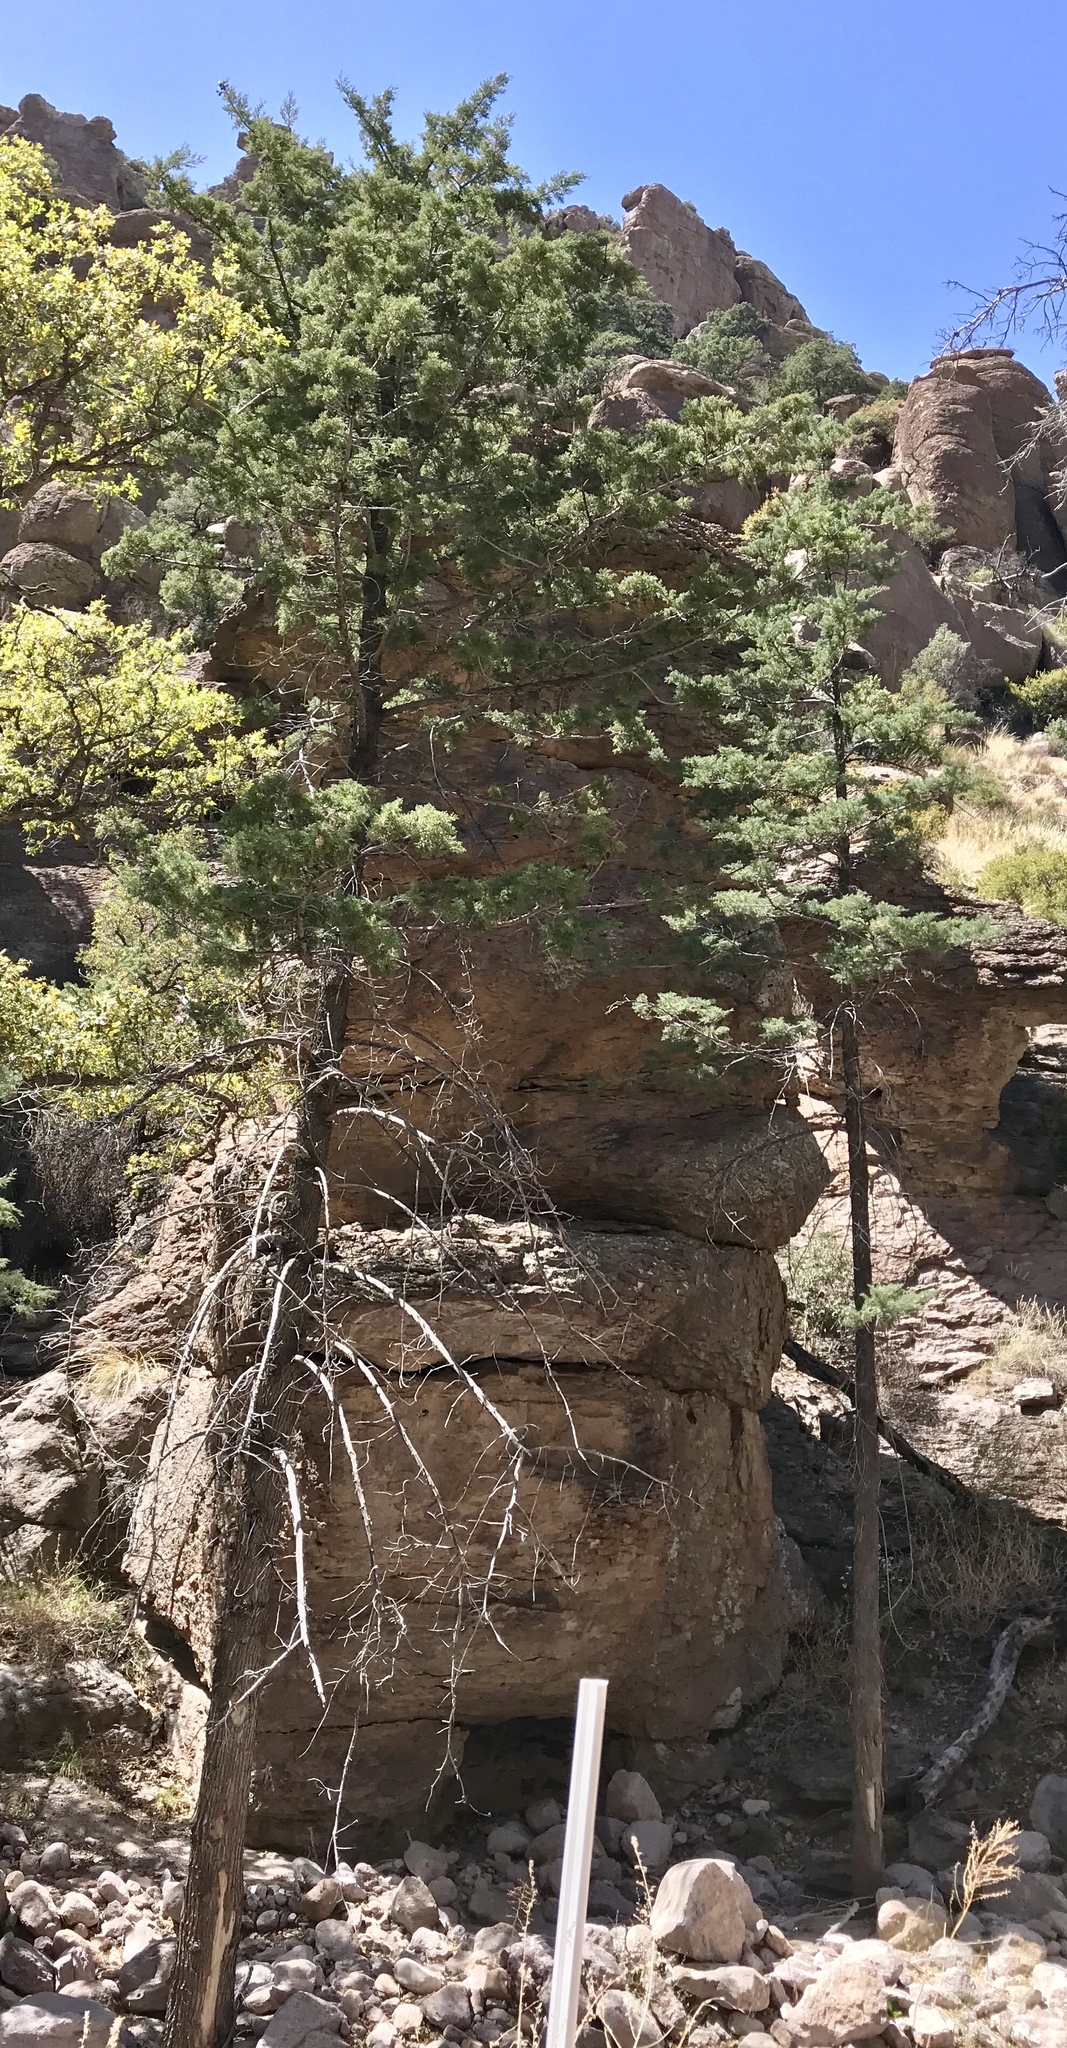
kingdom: Plantae
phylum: Tracheophyta
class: Pinopsida
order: Pinales
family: Cupressaceae
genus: Cupressus
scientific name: Cupressus arizonica
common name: Arizona cypress
